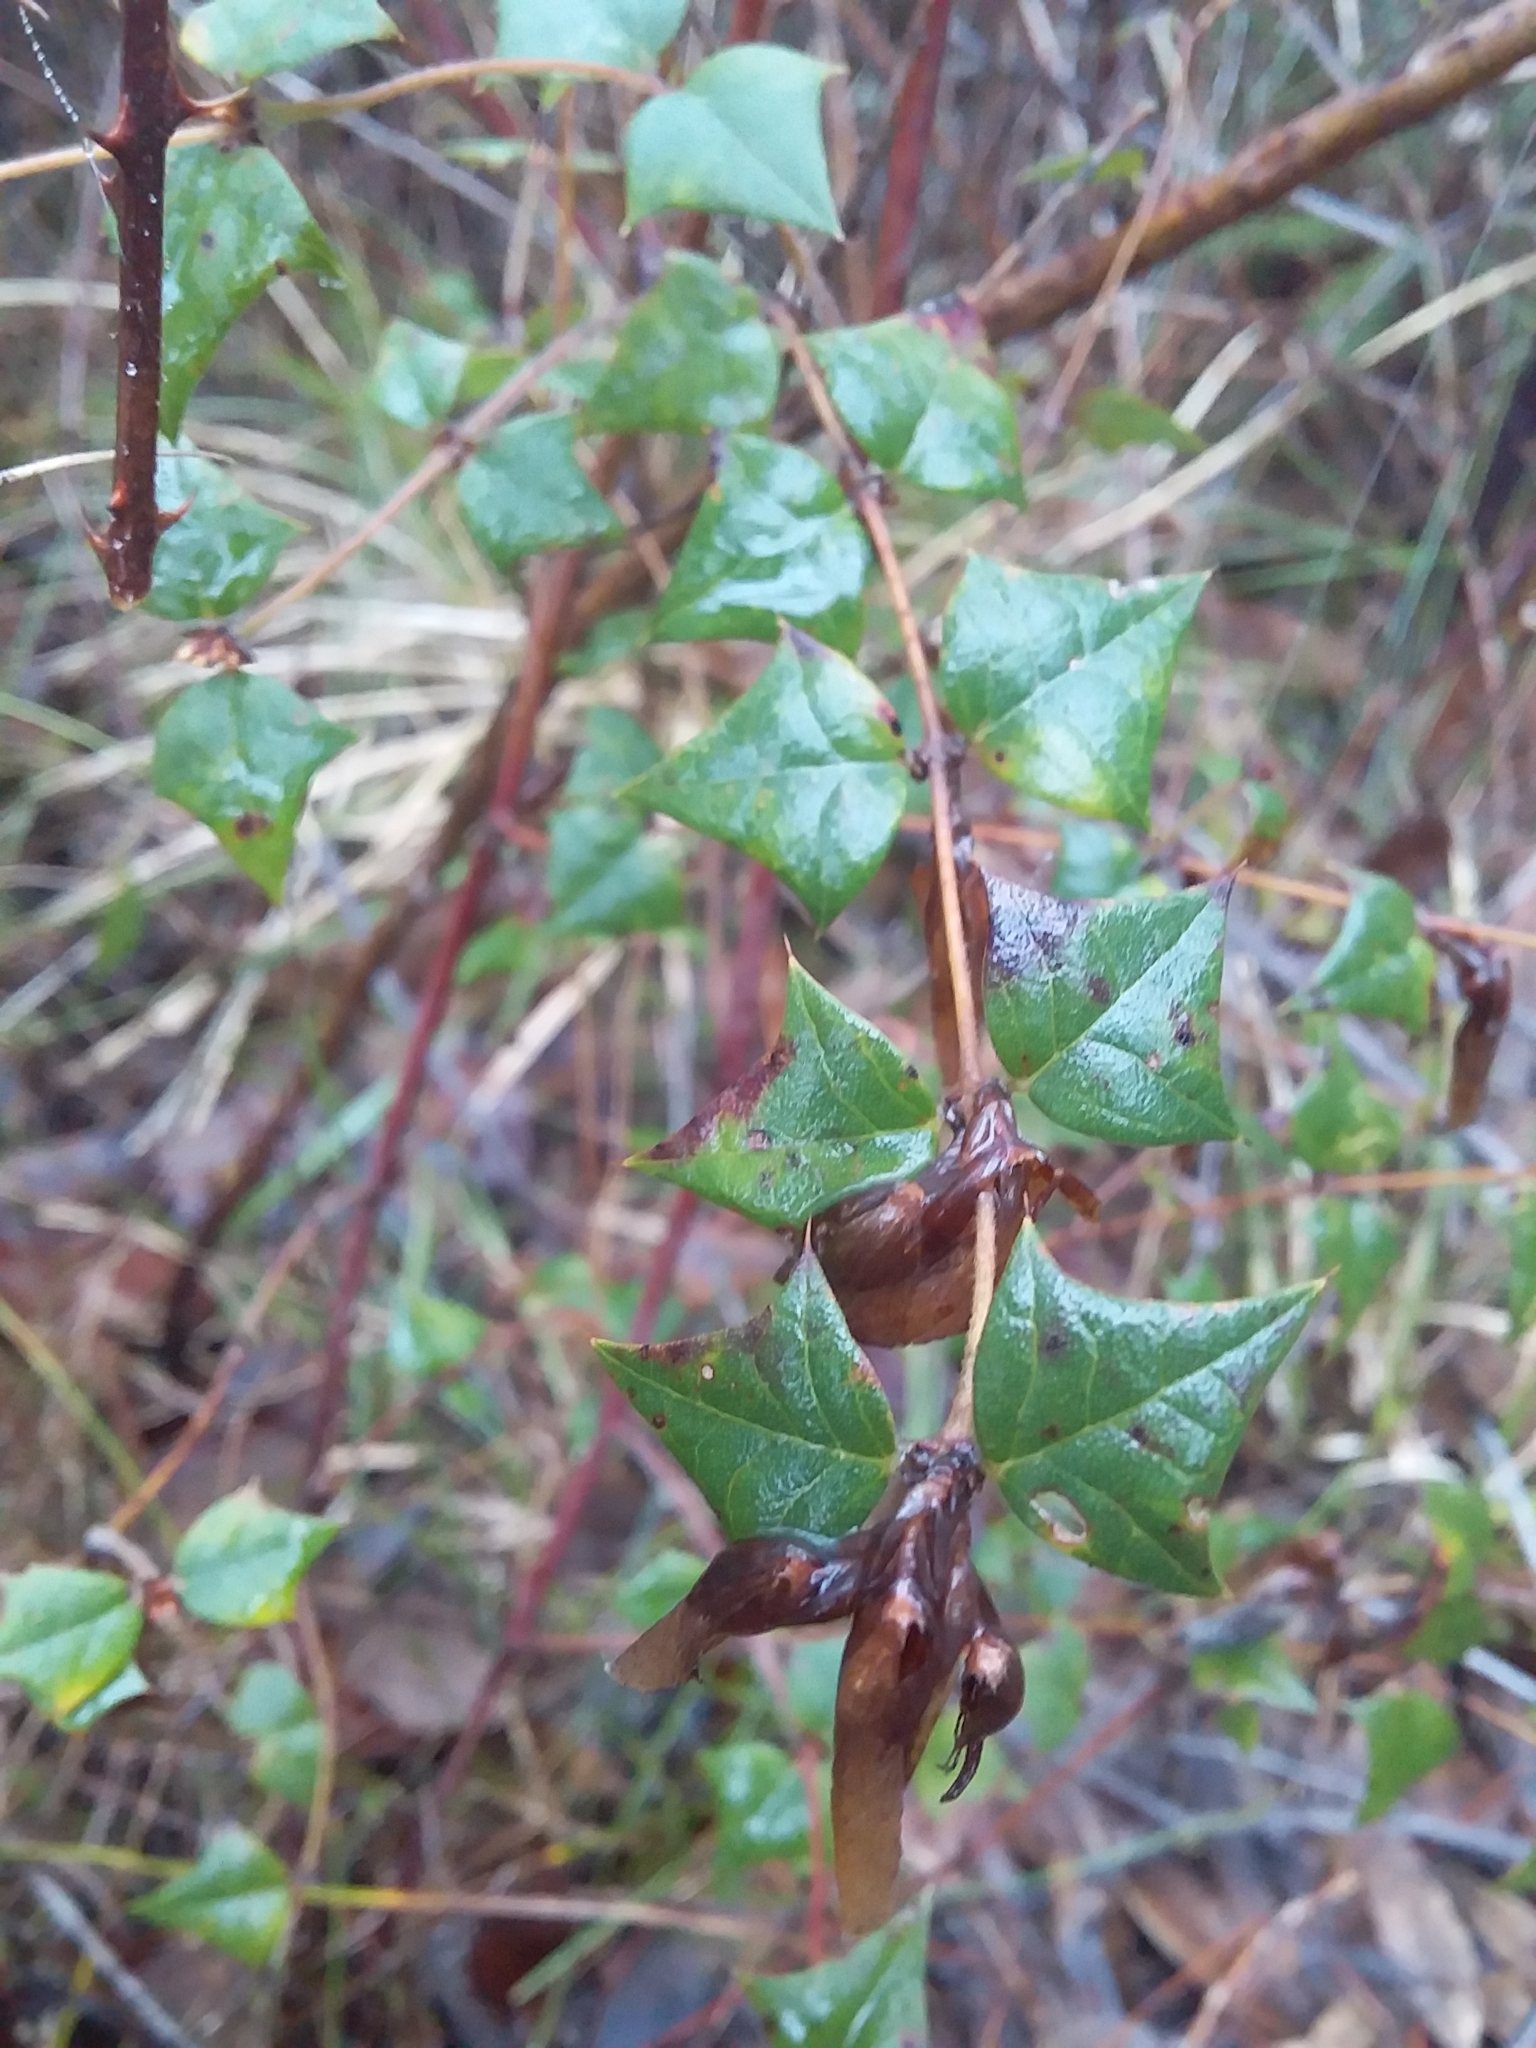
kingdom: Plantae
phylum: Tracheophyta
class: Magnoliopsida
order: Fabales
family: Fabaceae
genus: Platylobium
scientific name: Platylobium obtusangulum
